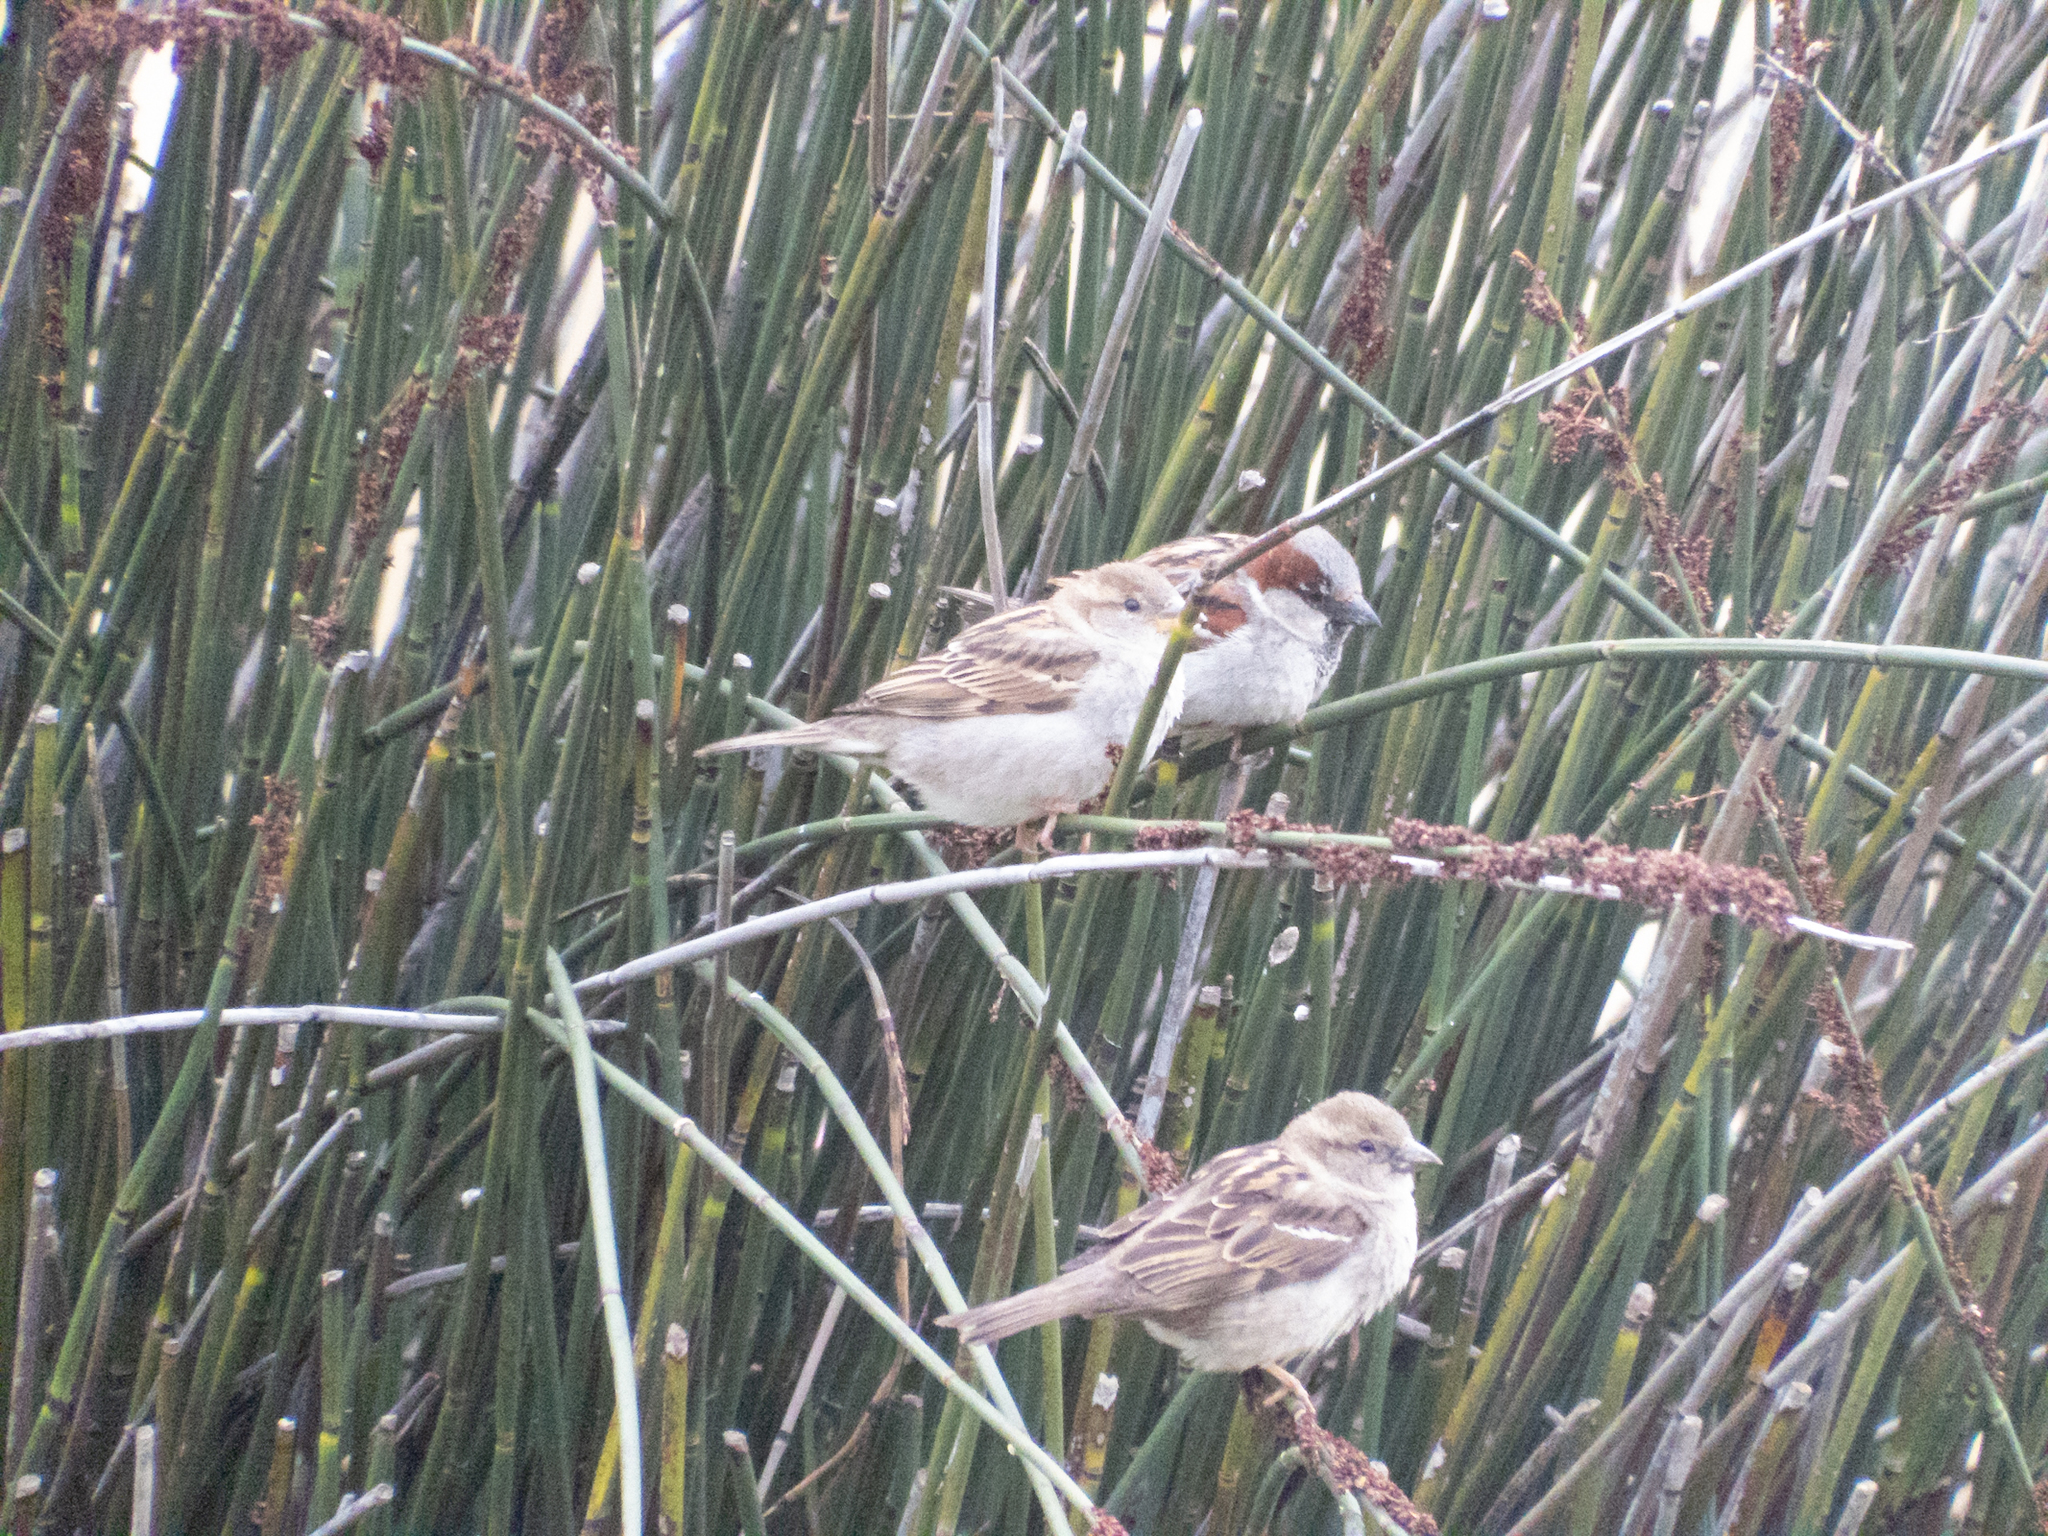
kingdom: Animalia
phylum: Chordata
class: Aves
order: Passeriformes
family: Passeridae
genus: Passer
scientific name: Passer domesticus
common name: House sparrow
